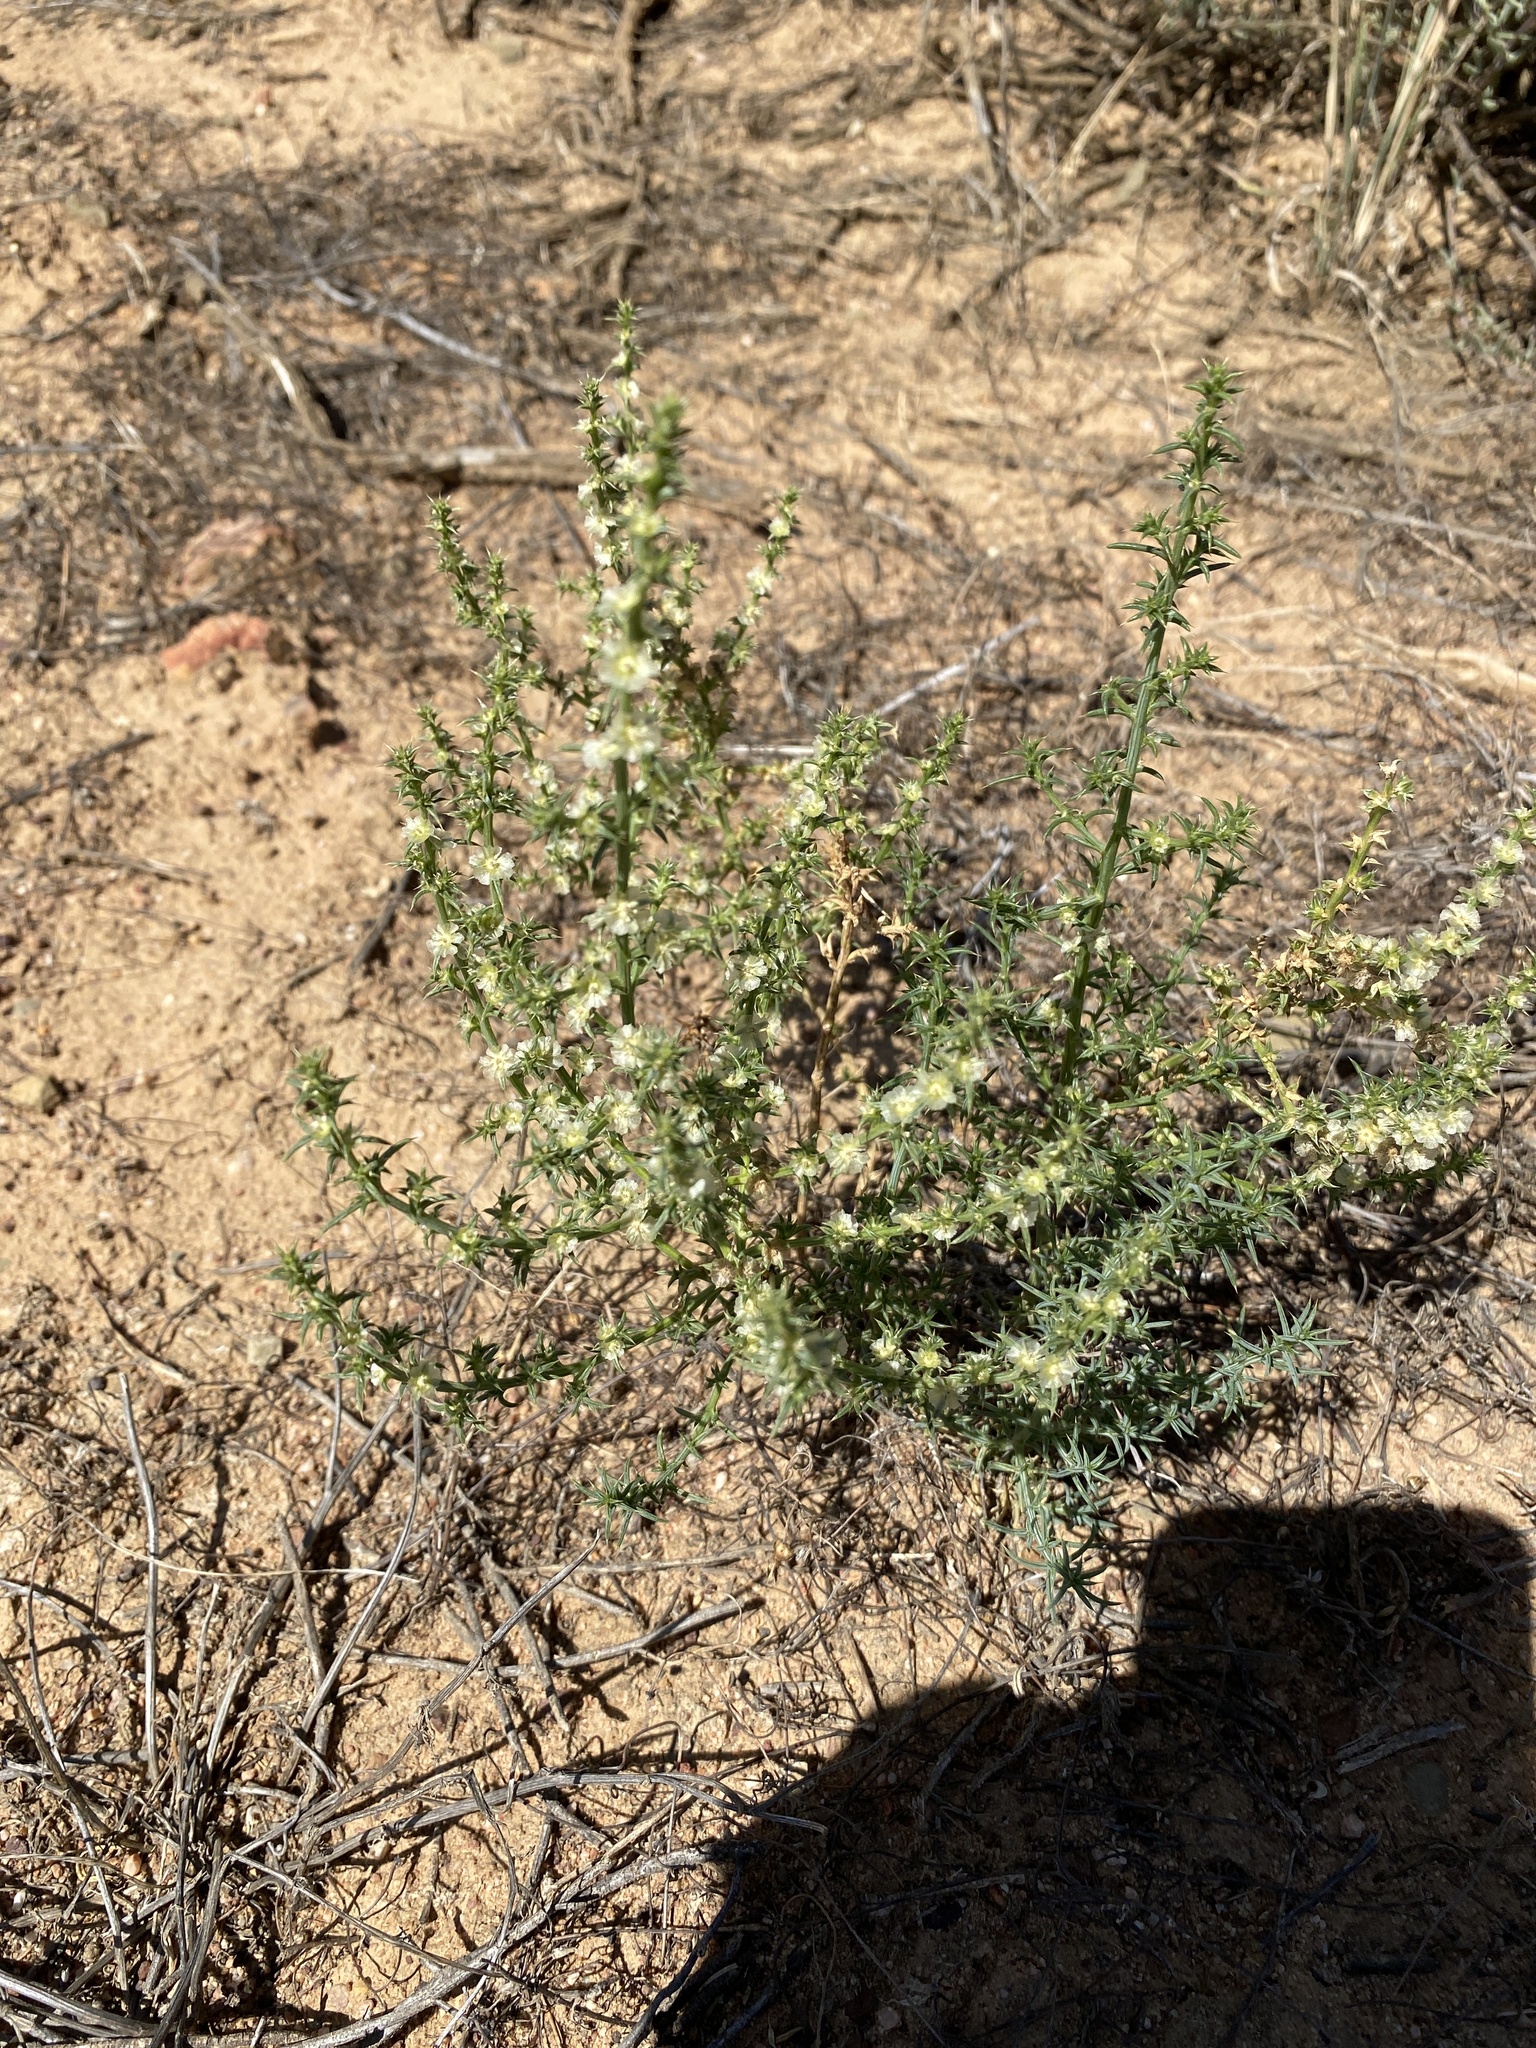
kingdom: Plantae
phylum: Tracheophyta
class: Magnoliopsida
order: Caryophyllales
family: Amaranthaceae
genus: Salsola
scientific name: Salsola kali
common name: Saltwort
